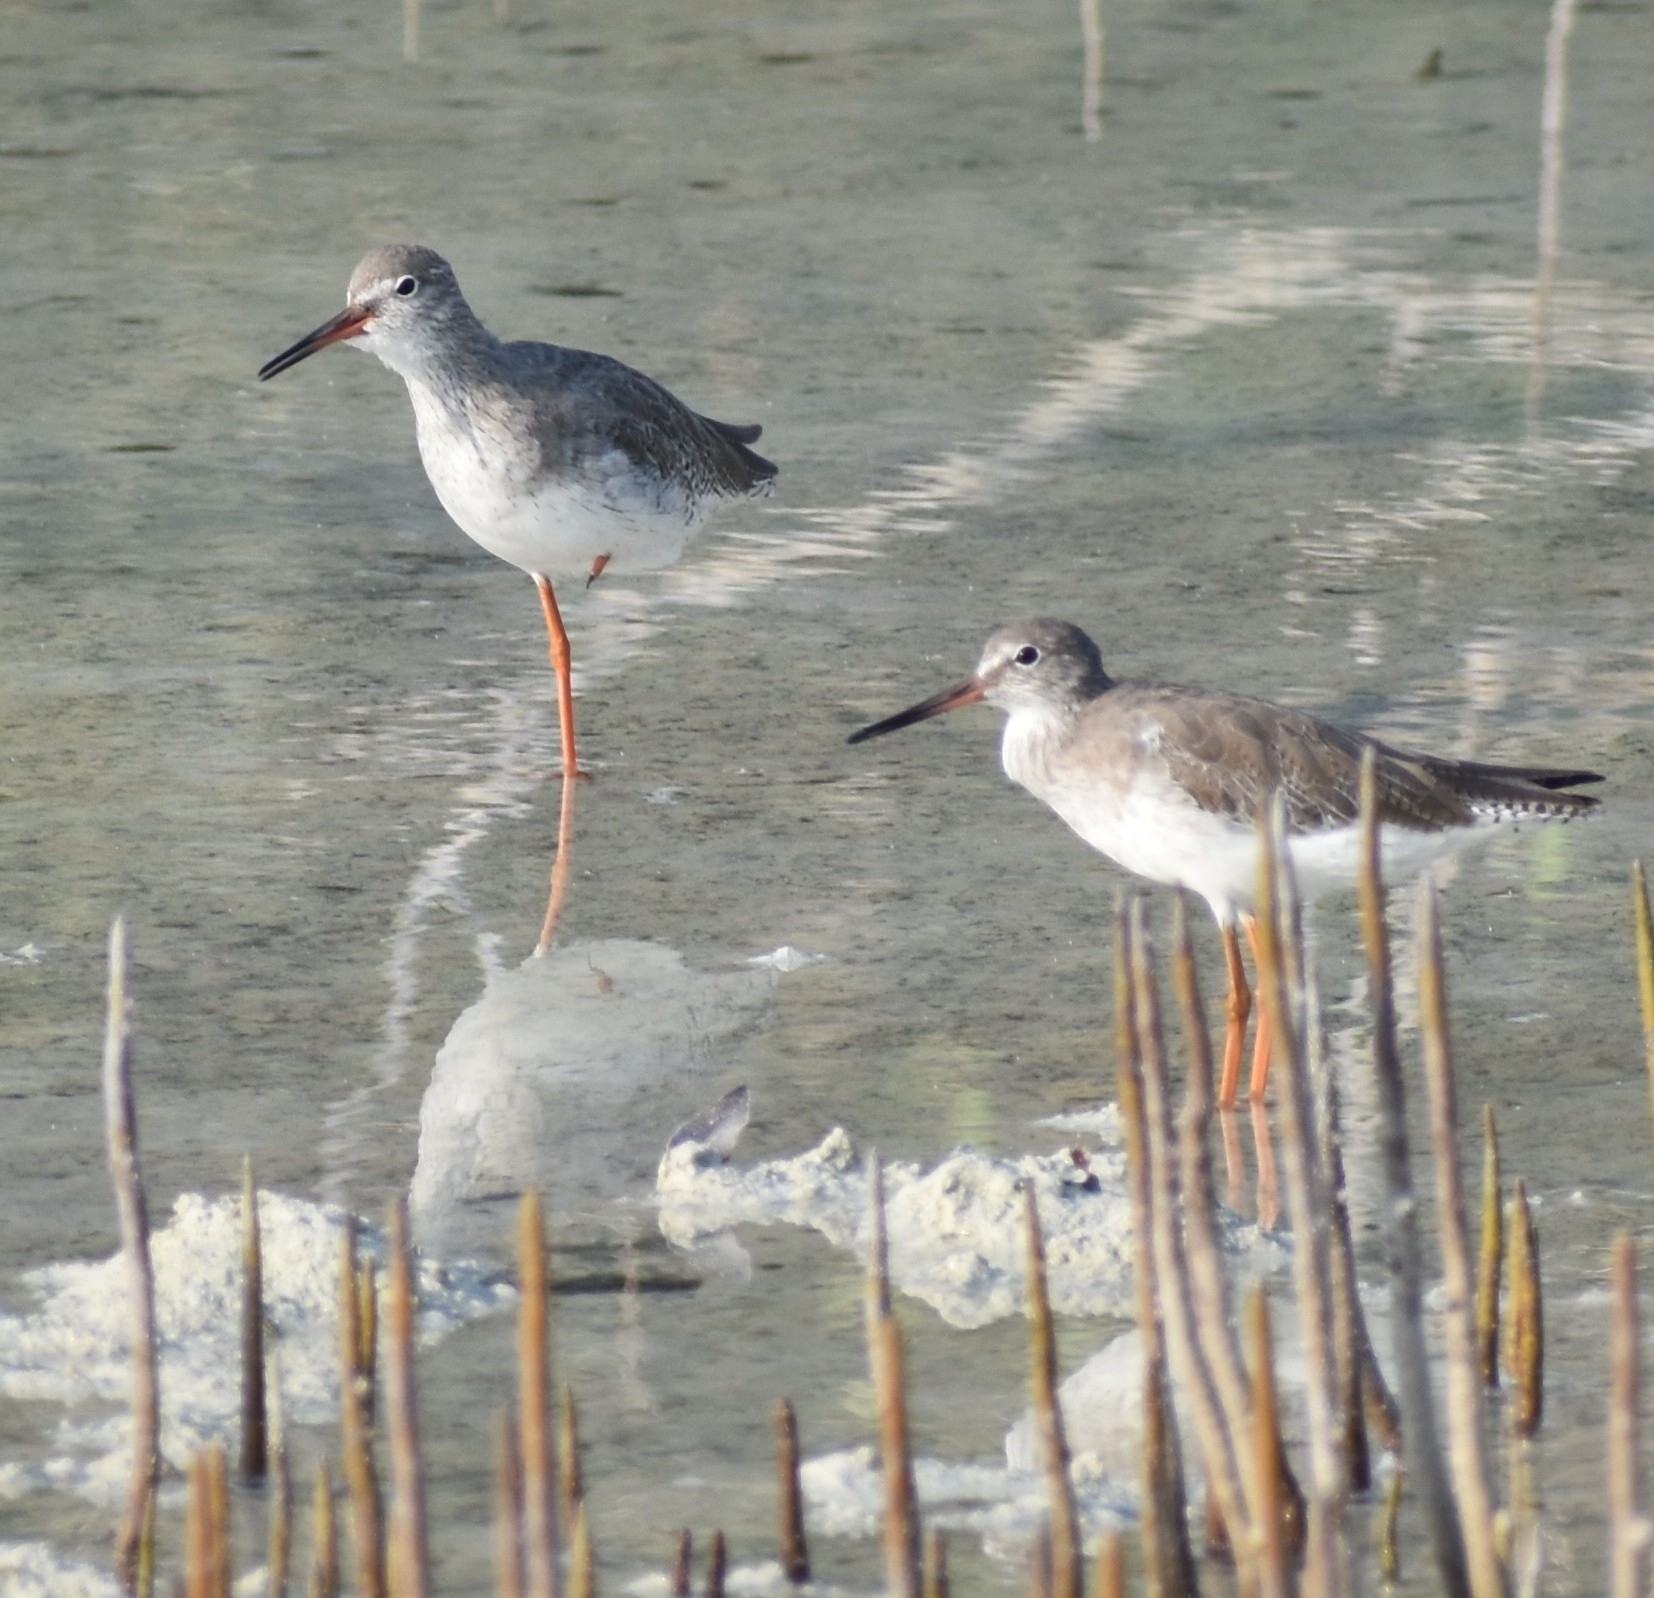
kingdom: Animalia
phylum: Chordata
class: Aves
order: Charadriiformes
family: Scolopacidae
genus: Tringa
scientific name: Tringa totanus
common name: Common redshank
